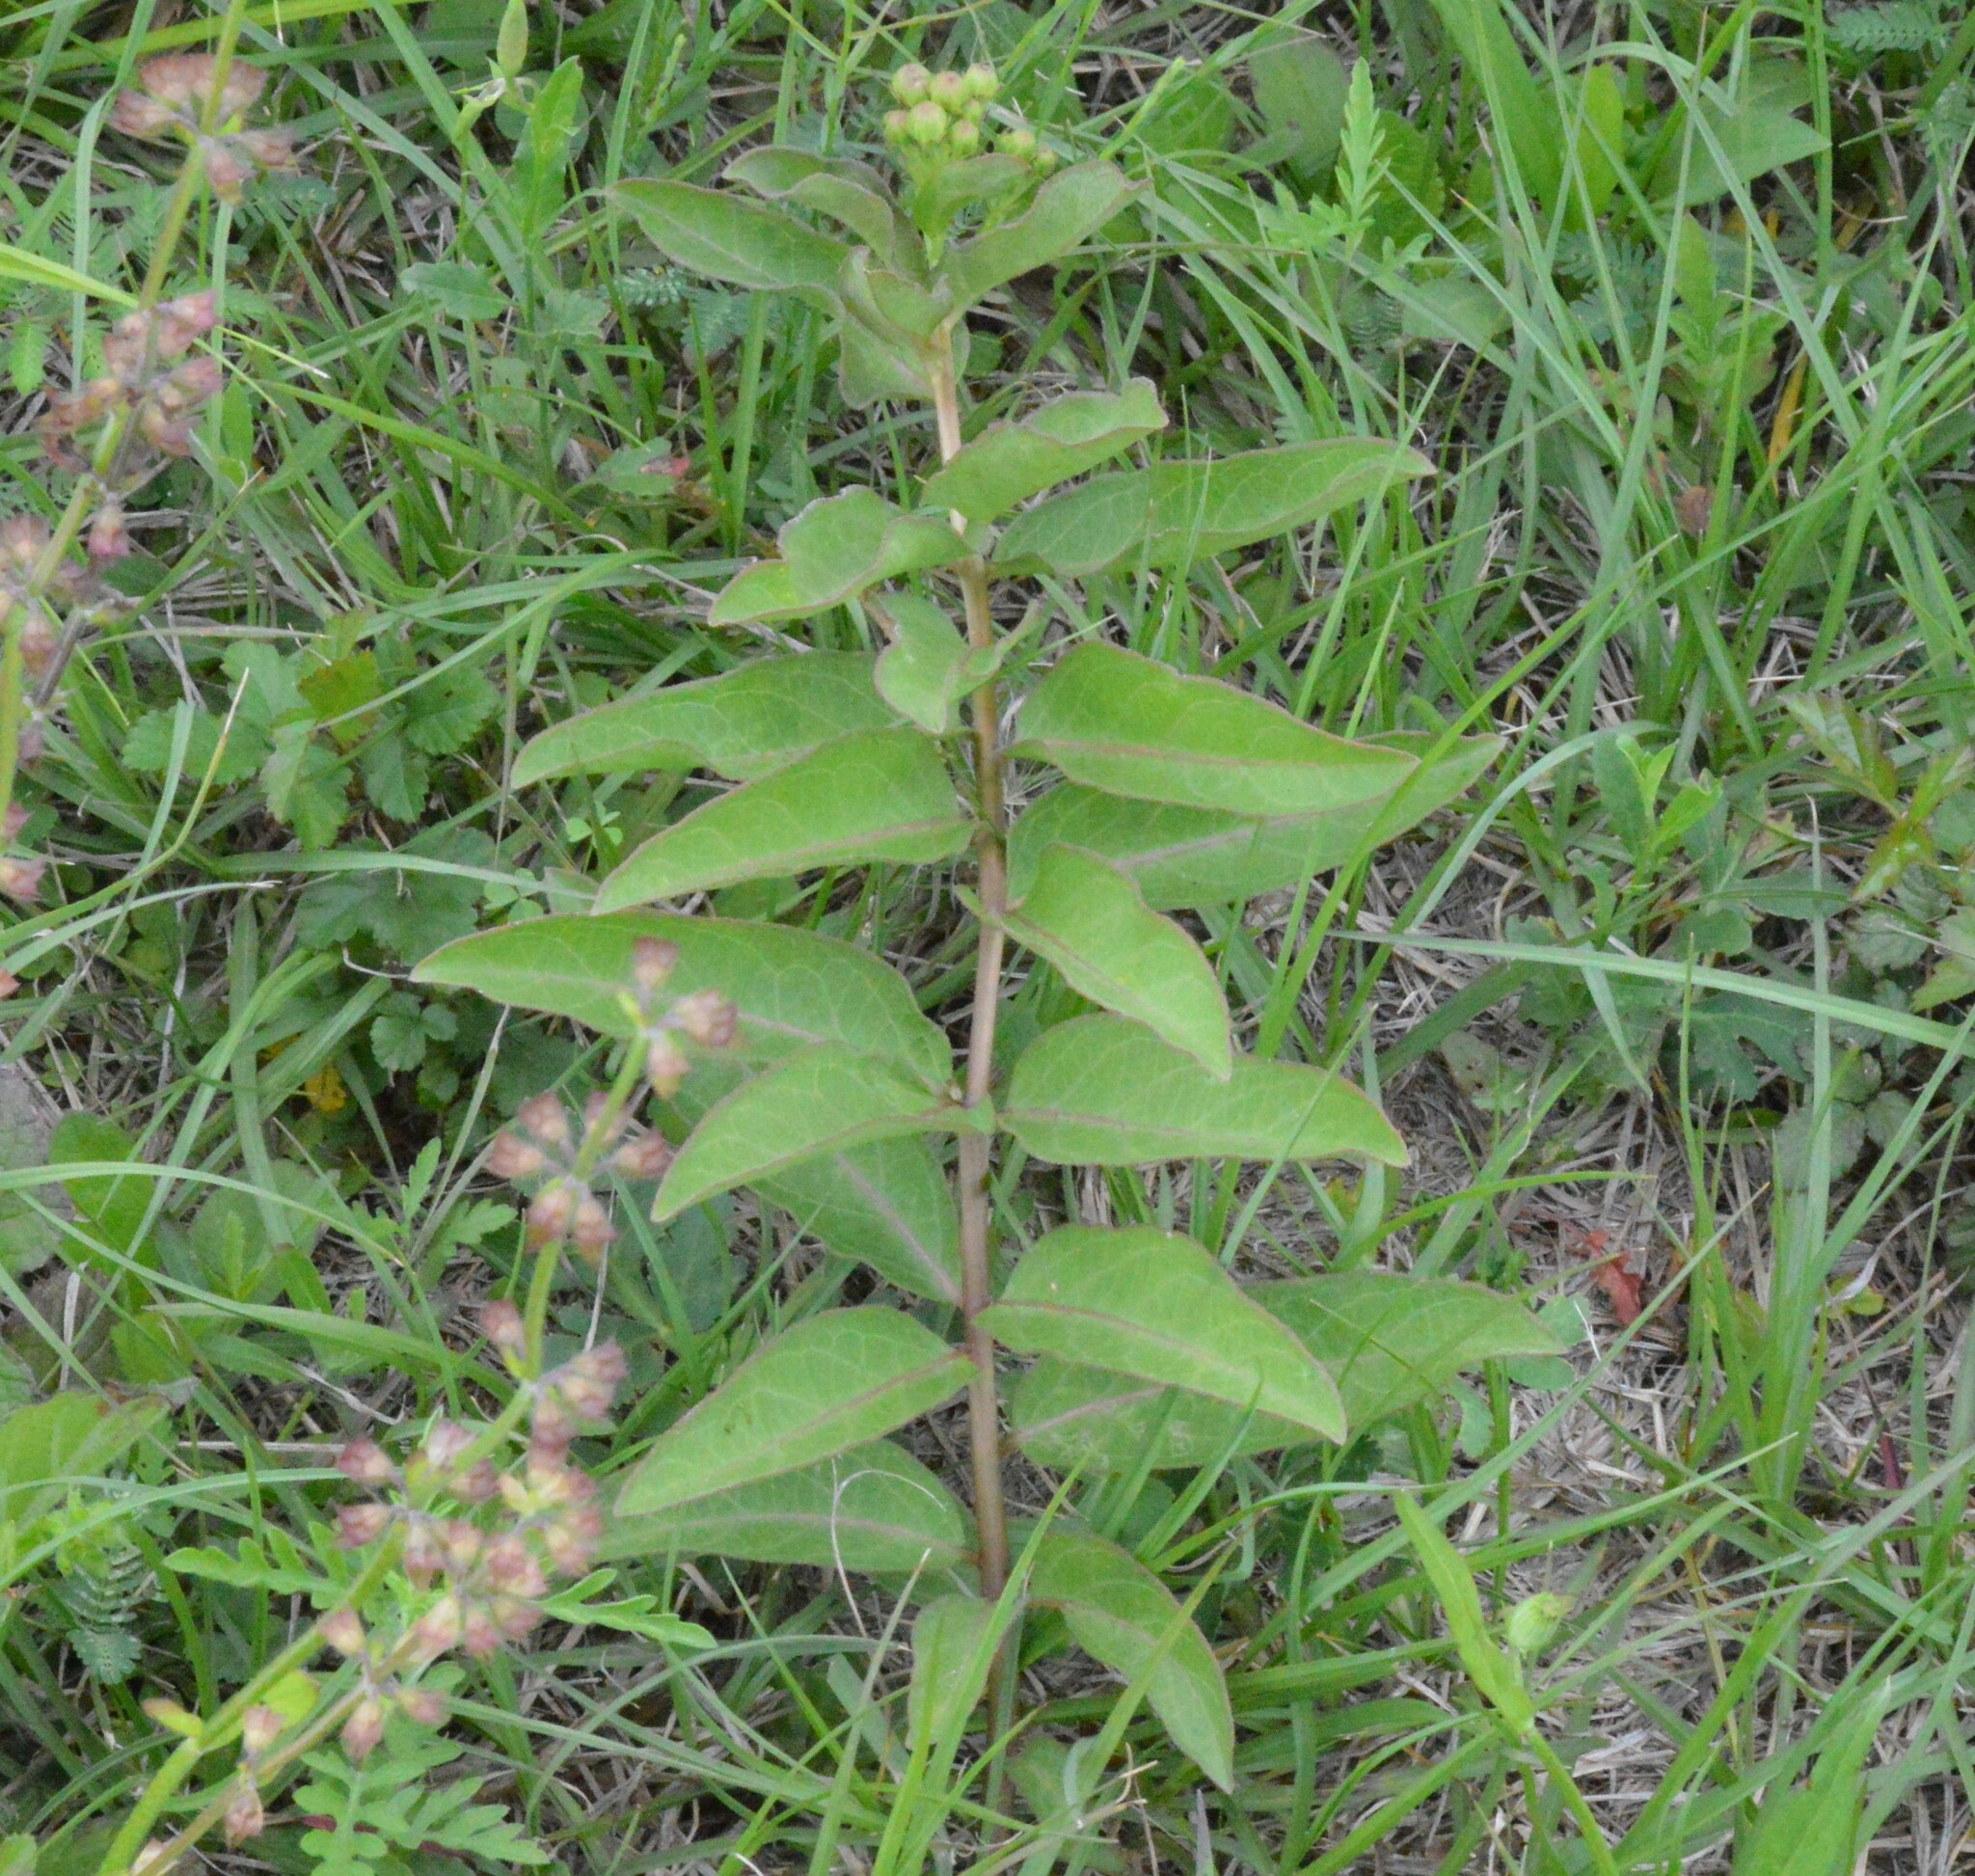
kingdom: Plantae
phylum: Tracheophyta
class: Magnoliopsida
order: Gentianales
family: Apocynaceae
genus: Asclepias
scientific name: Asclepias viridis
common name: Antelope-horns
